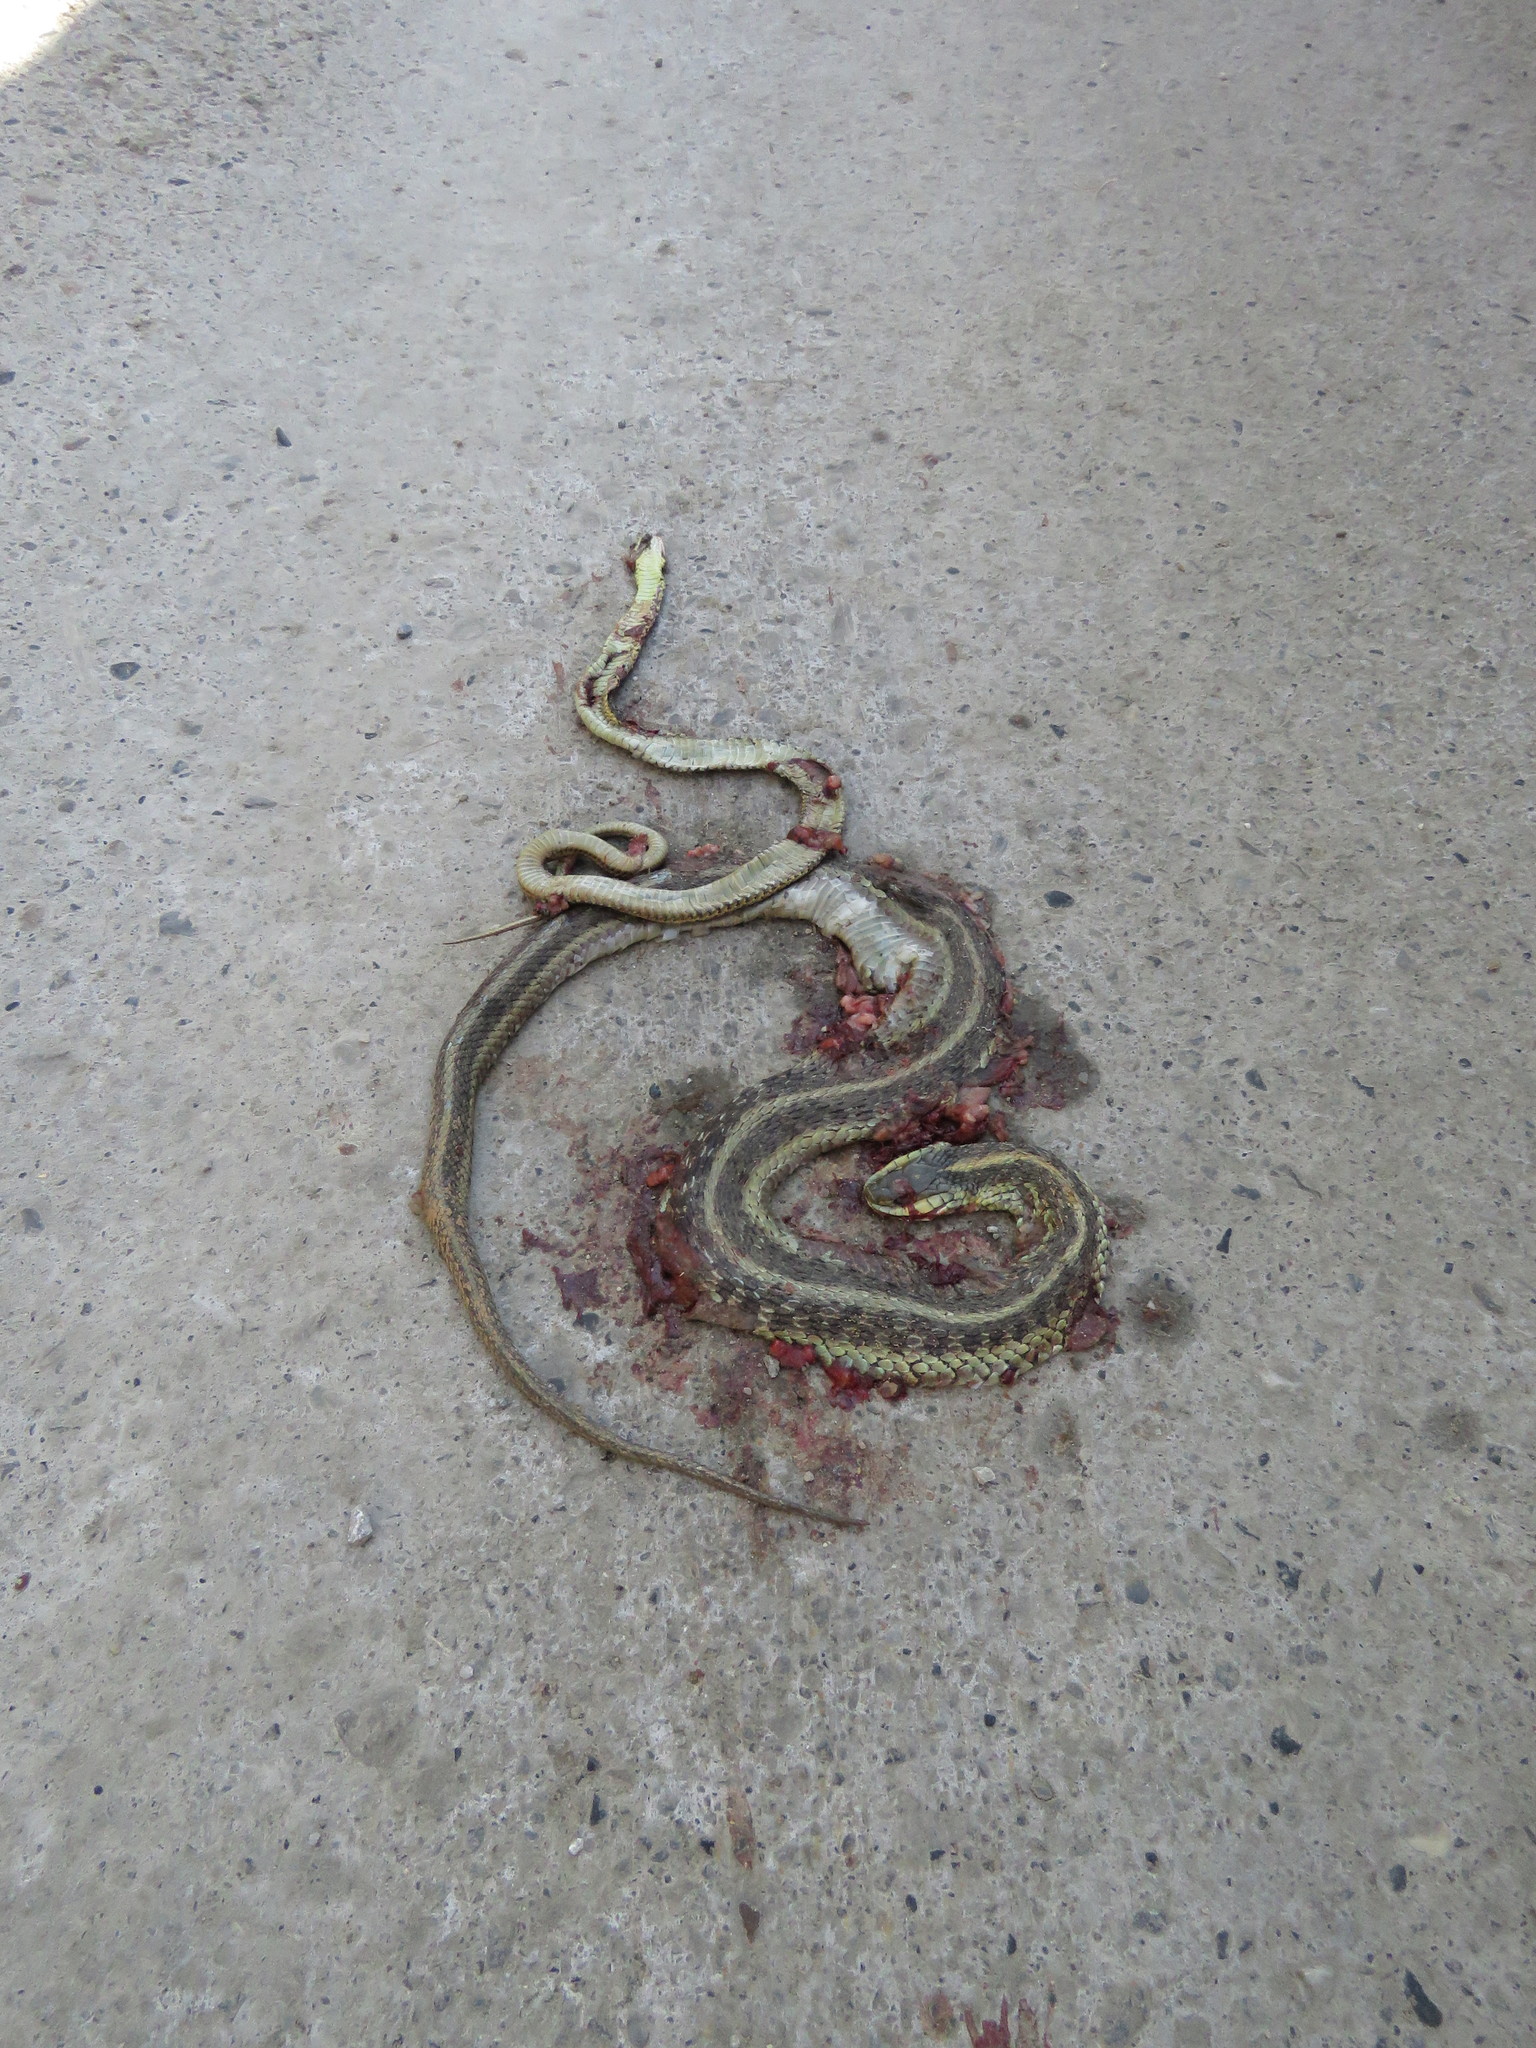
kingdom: Animalia
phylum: Chordata
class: Squamata
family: Colubridae
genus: Thamnophis
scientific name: Thamnophis sirtalis
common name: Common garter snake
